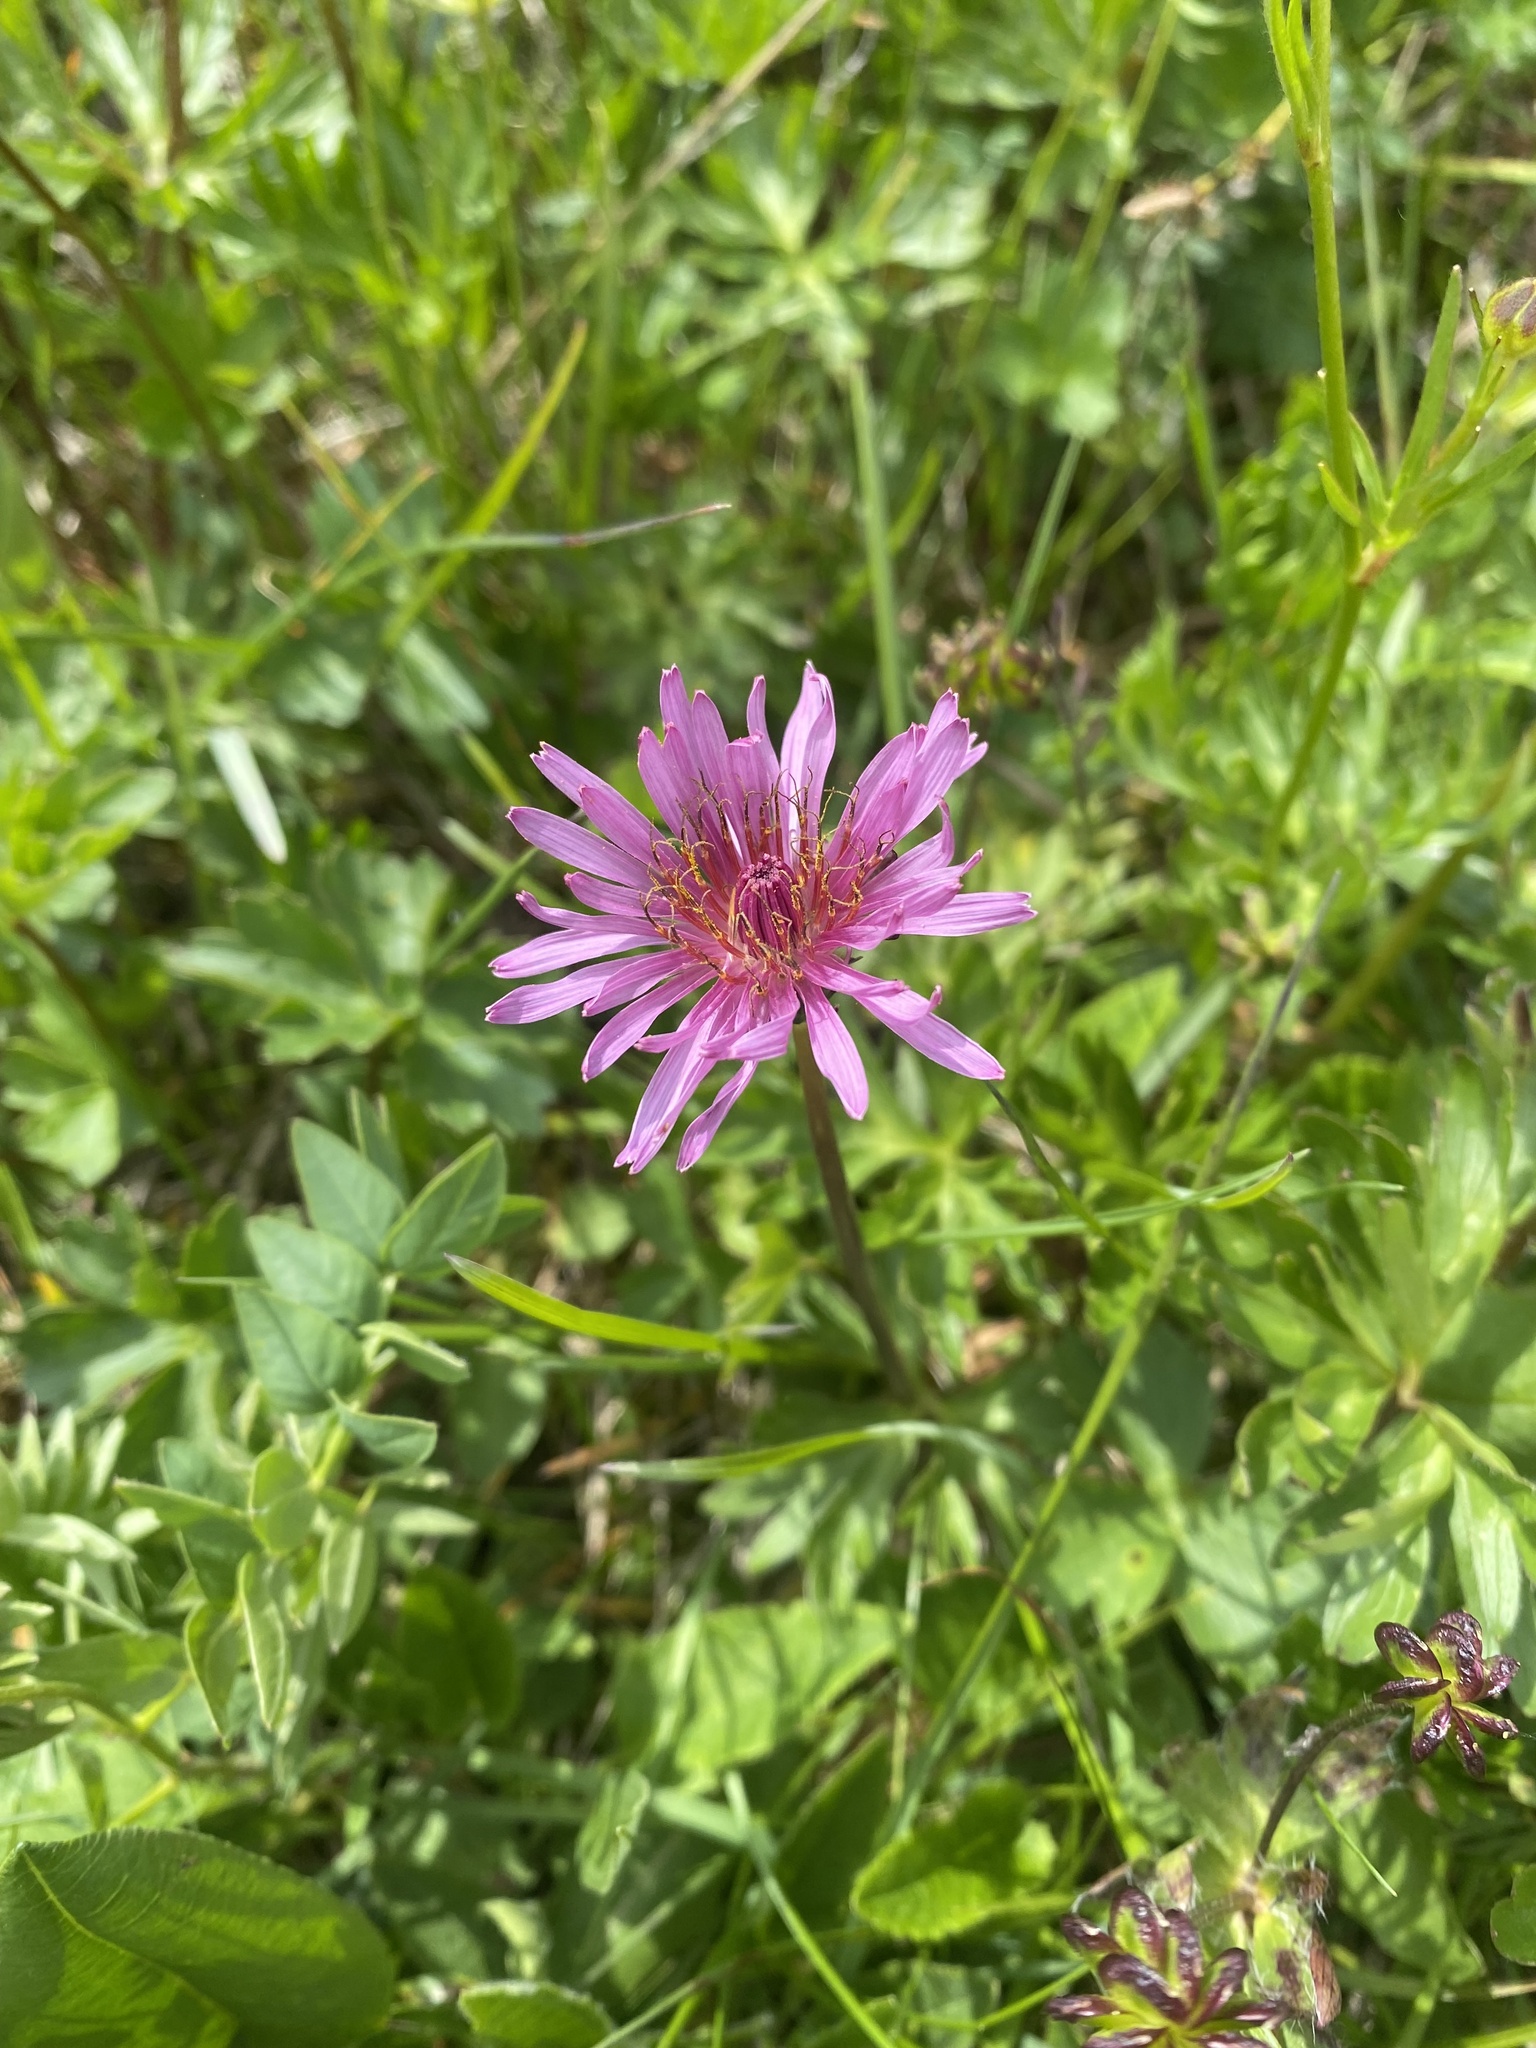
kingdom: Plantae
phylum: Tracheophyta
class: Magnoliopsida
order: Asterales
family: Asteraceae
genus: Taraxacum
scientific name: Taraxacum porphyranthum
